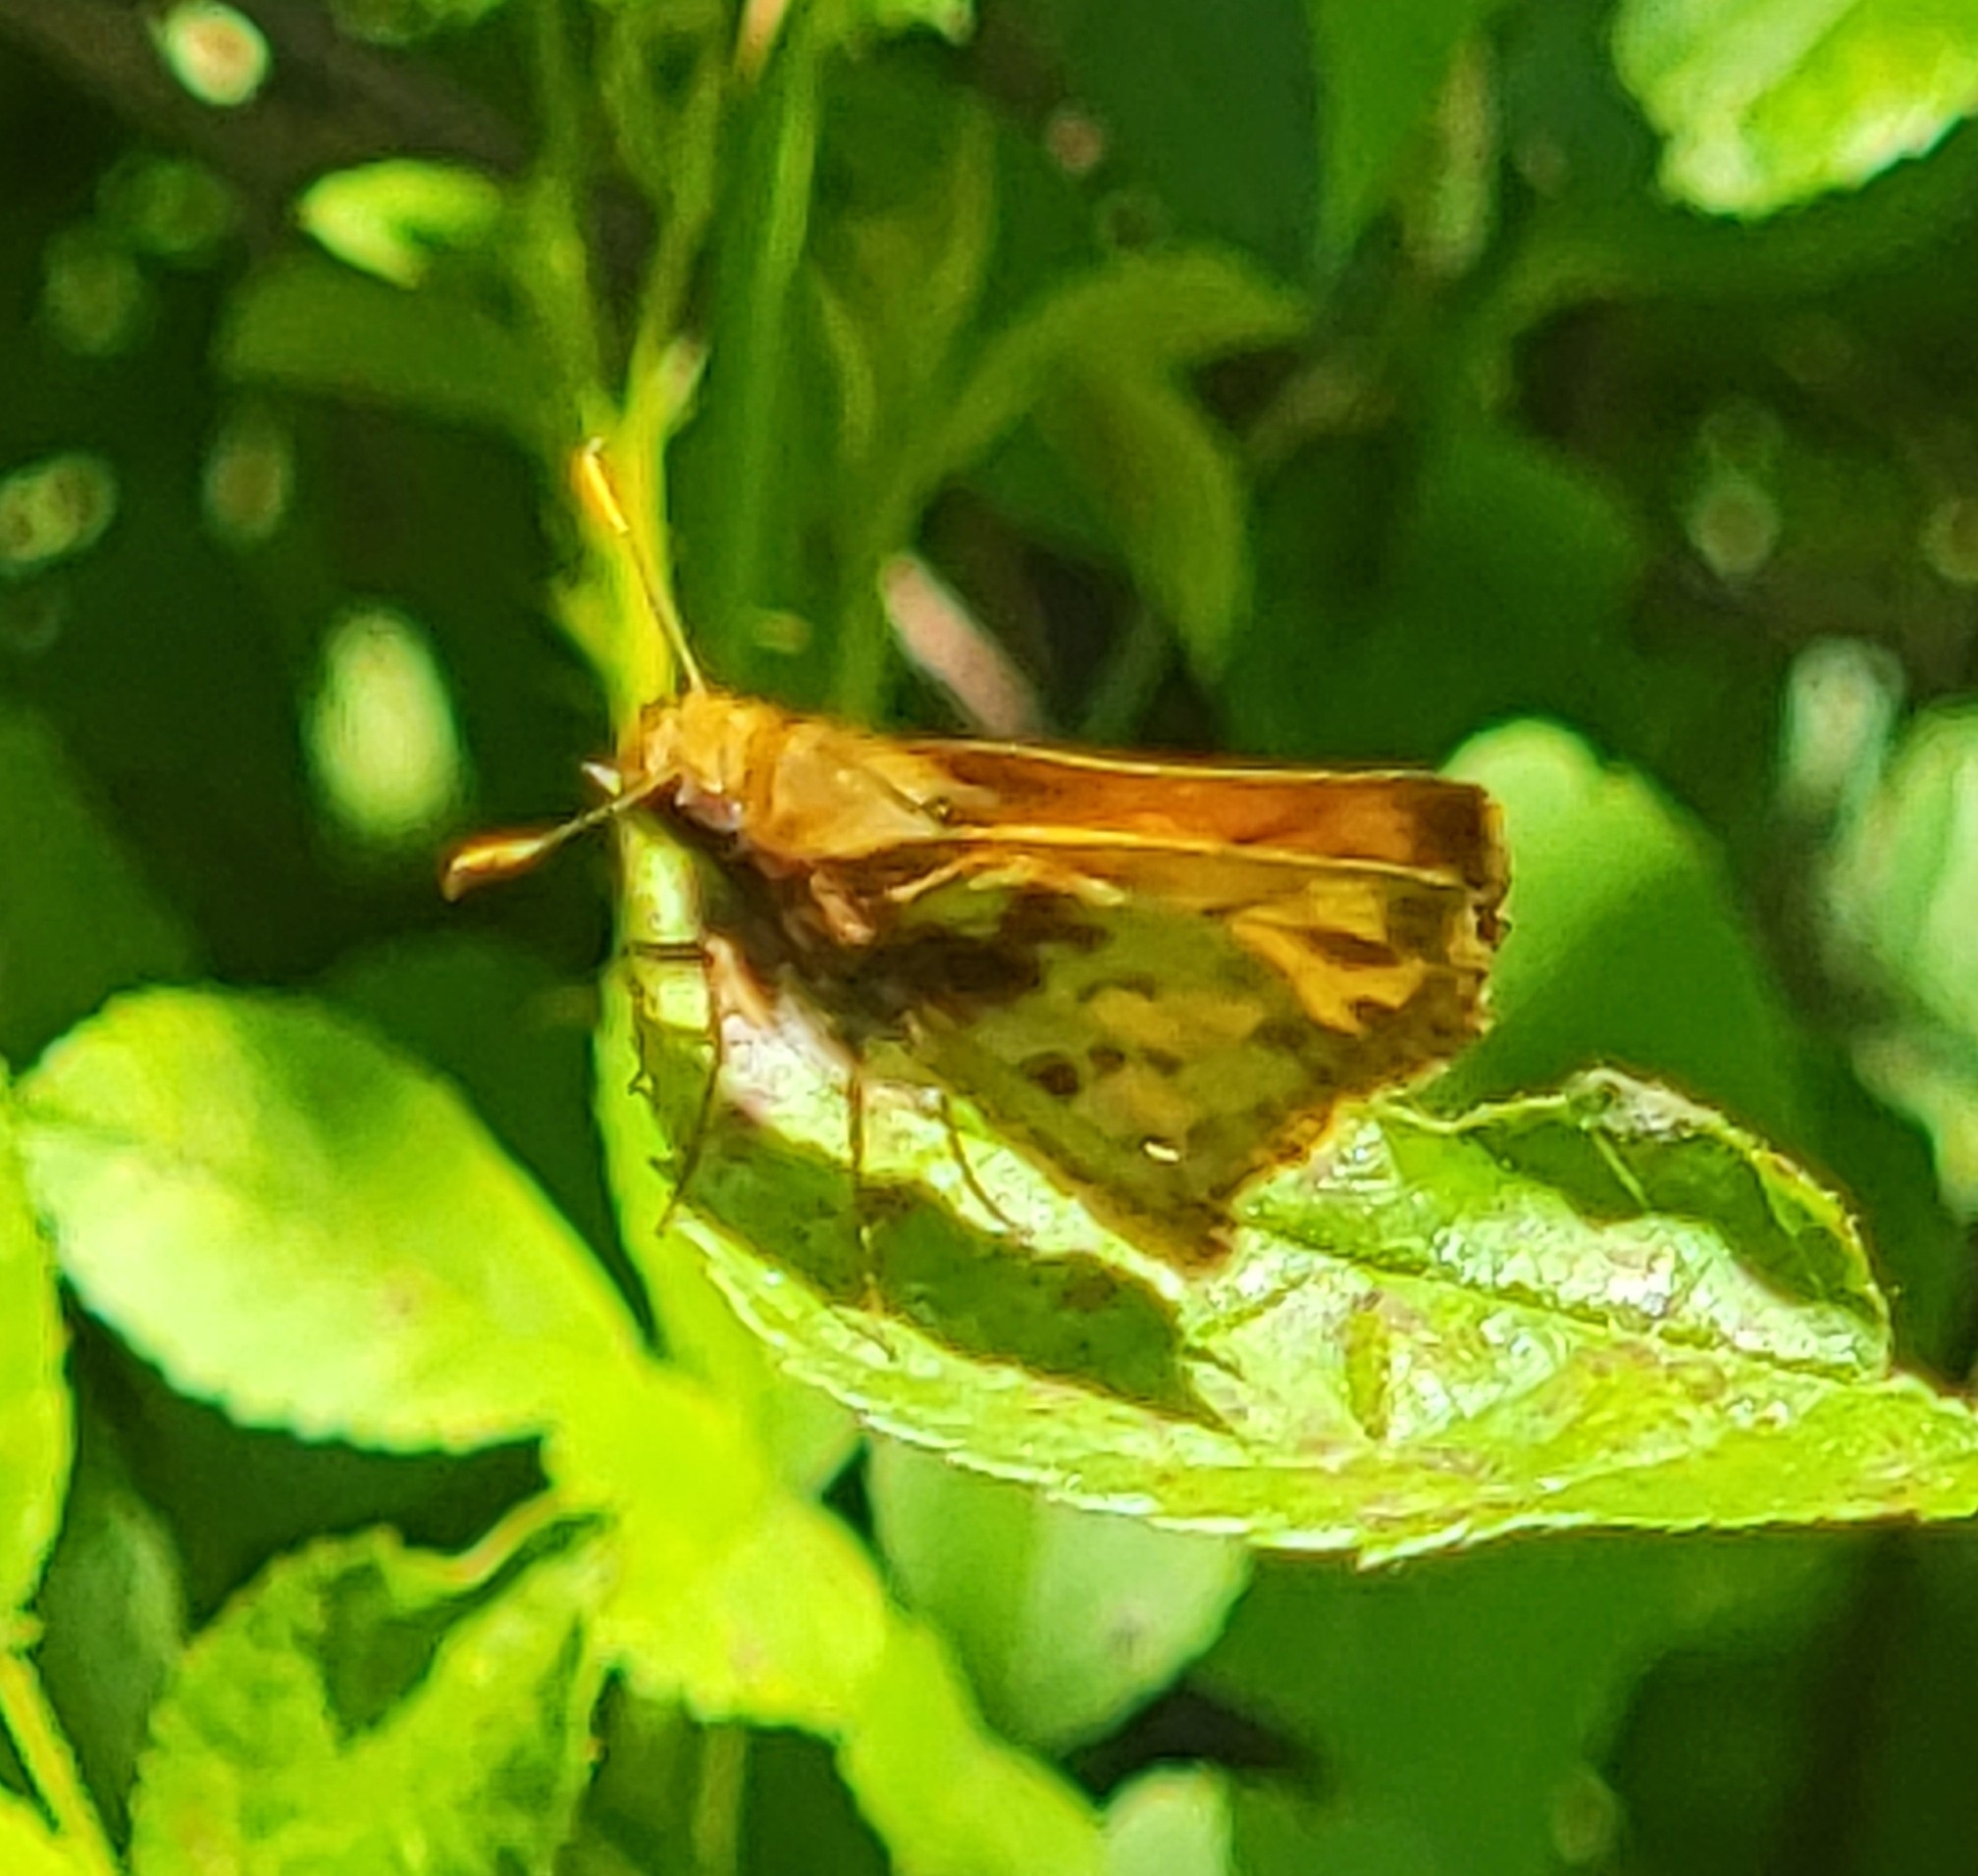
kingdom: Animalia
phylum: Arthropoda
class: Insecta
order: Lepidoptera
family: Hesperiidae
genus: Lon
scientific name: Lon zabulon
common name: Zabulon skipper
